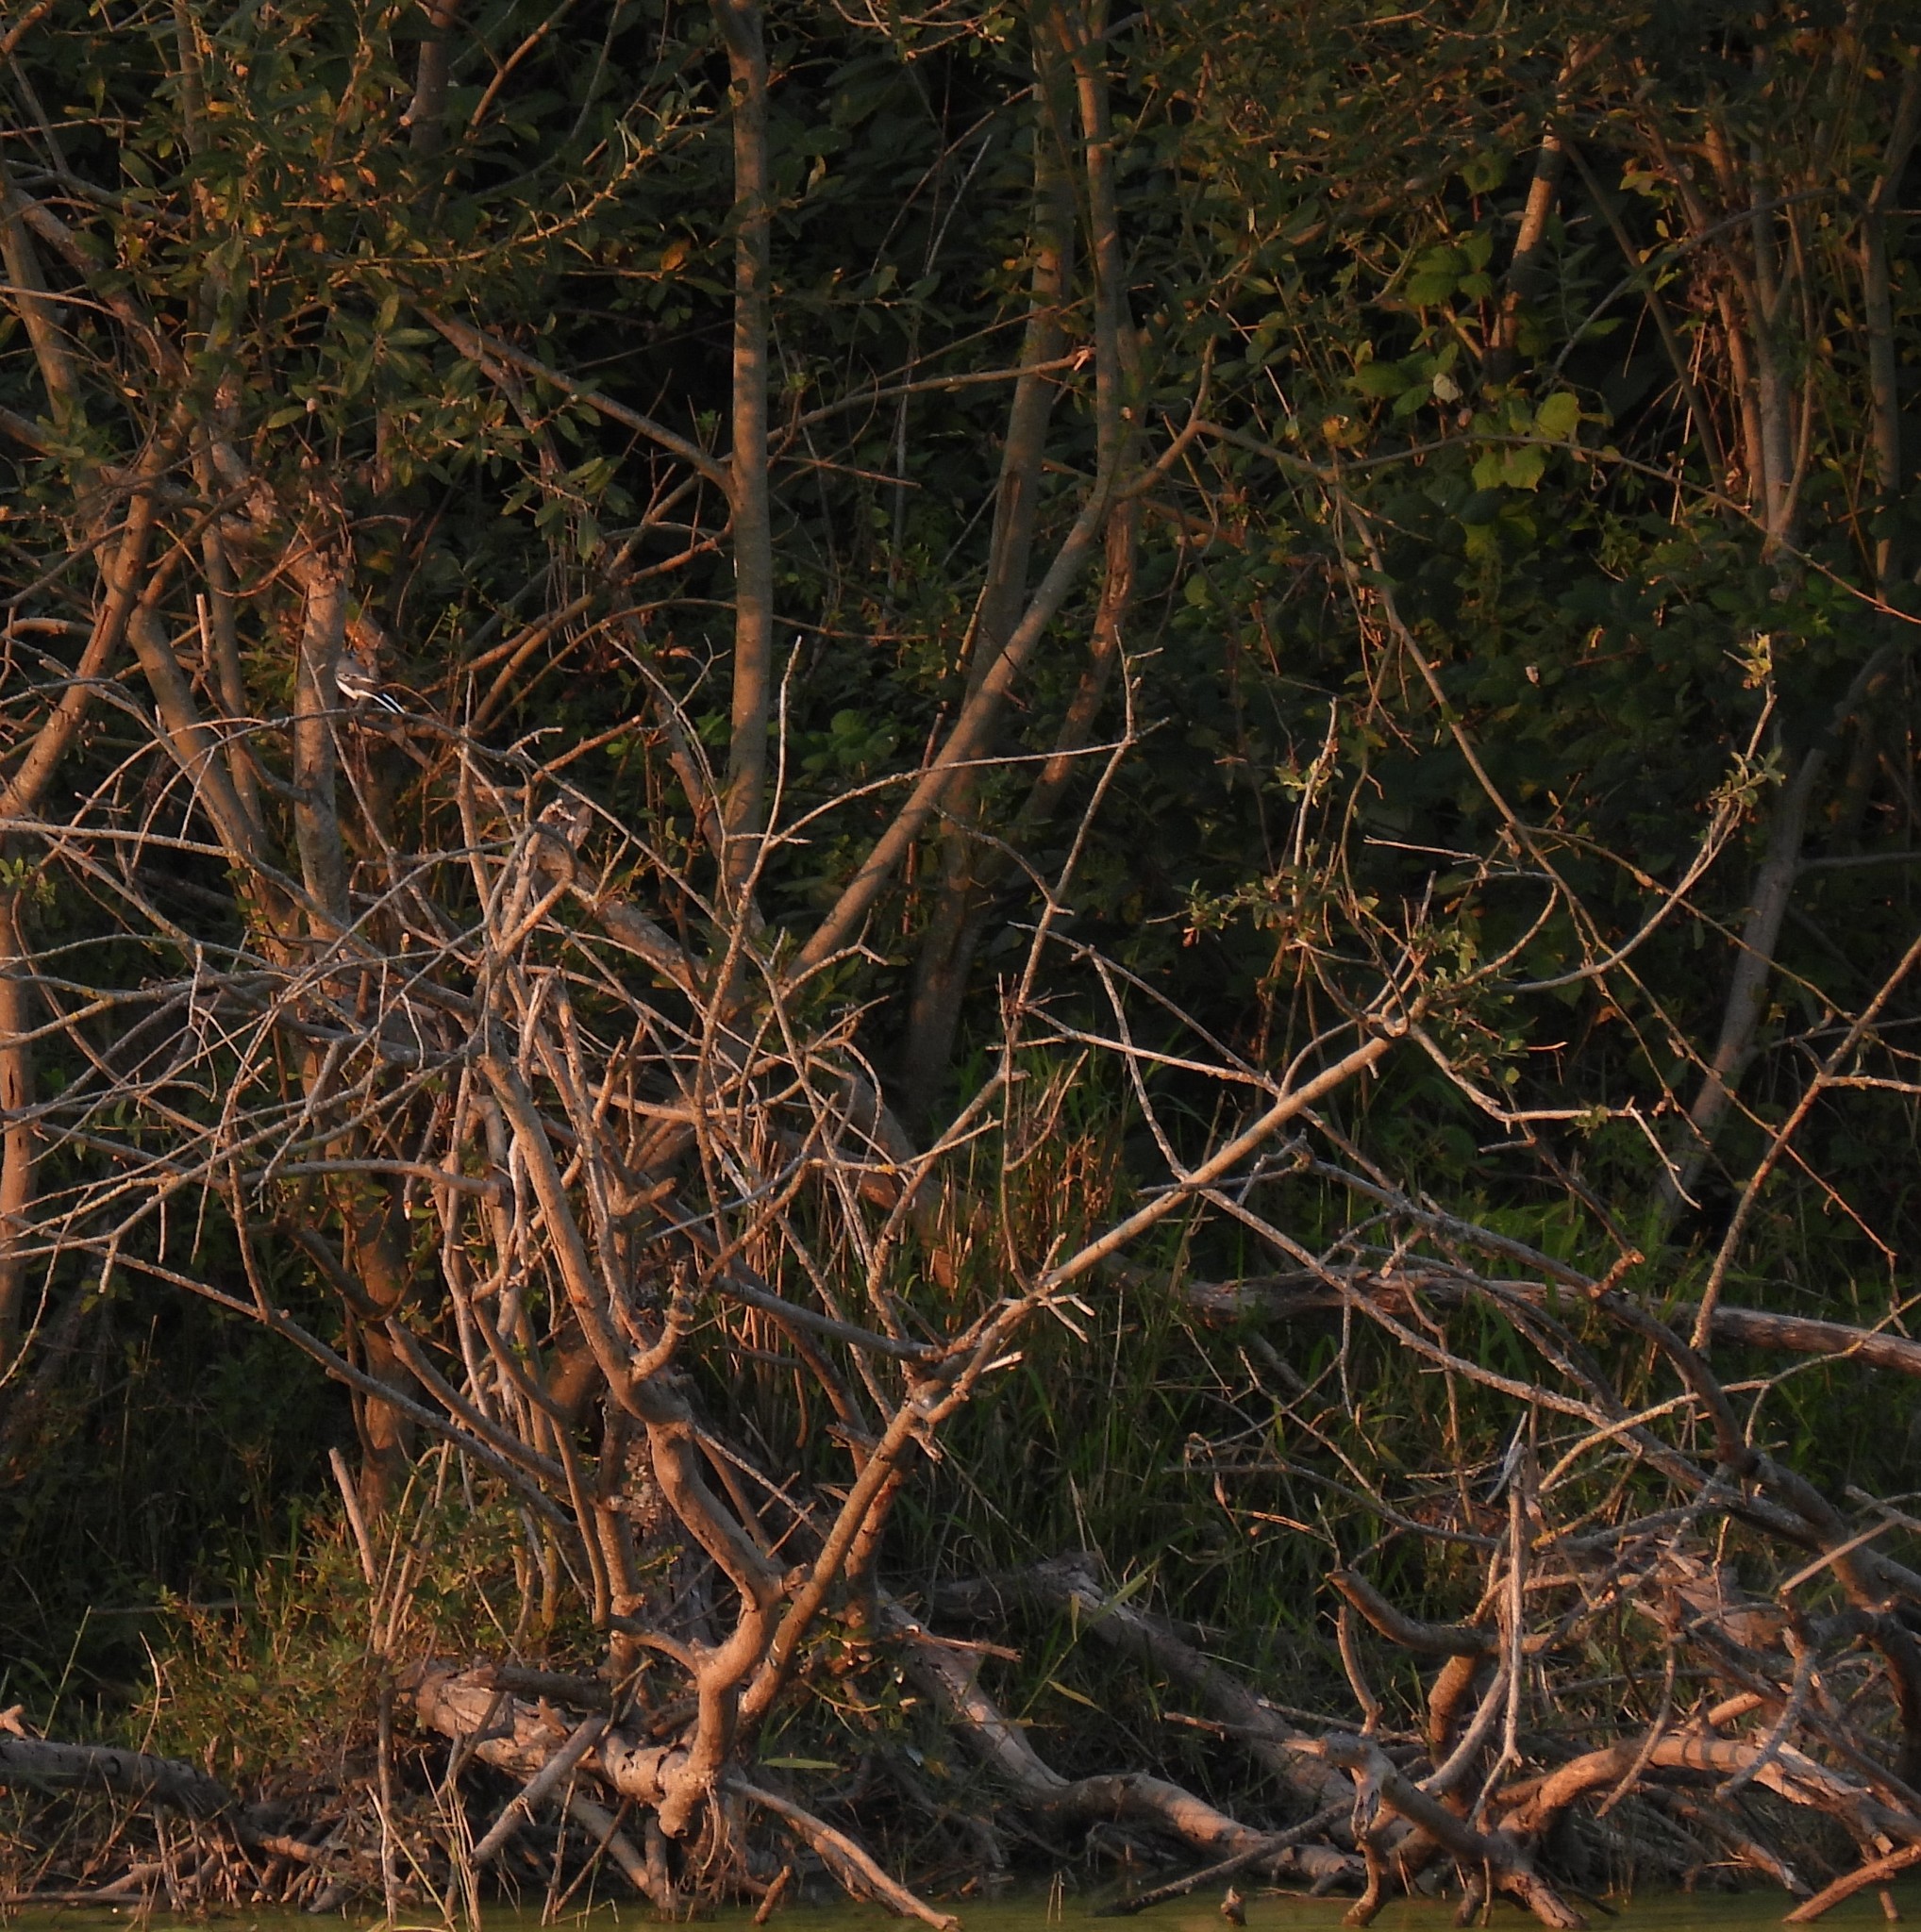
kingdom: Animalia
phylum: Chordata
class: Aves
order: Passeriformes
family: Motacillidae
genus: Motacilla
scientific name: Motacilla alba
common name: White wagtail
